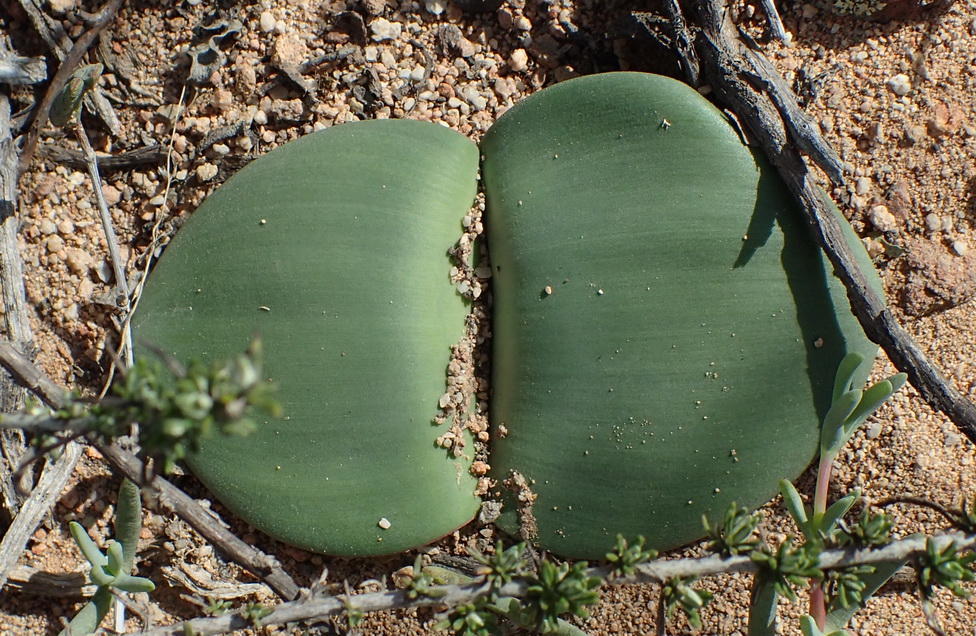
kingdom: Plantae
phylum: Tracheophyta
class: Liliopsida
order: Asparagales
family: Amaryllidaceae
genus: Haemanthus
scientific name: Haemanthus sanguineus
